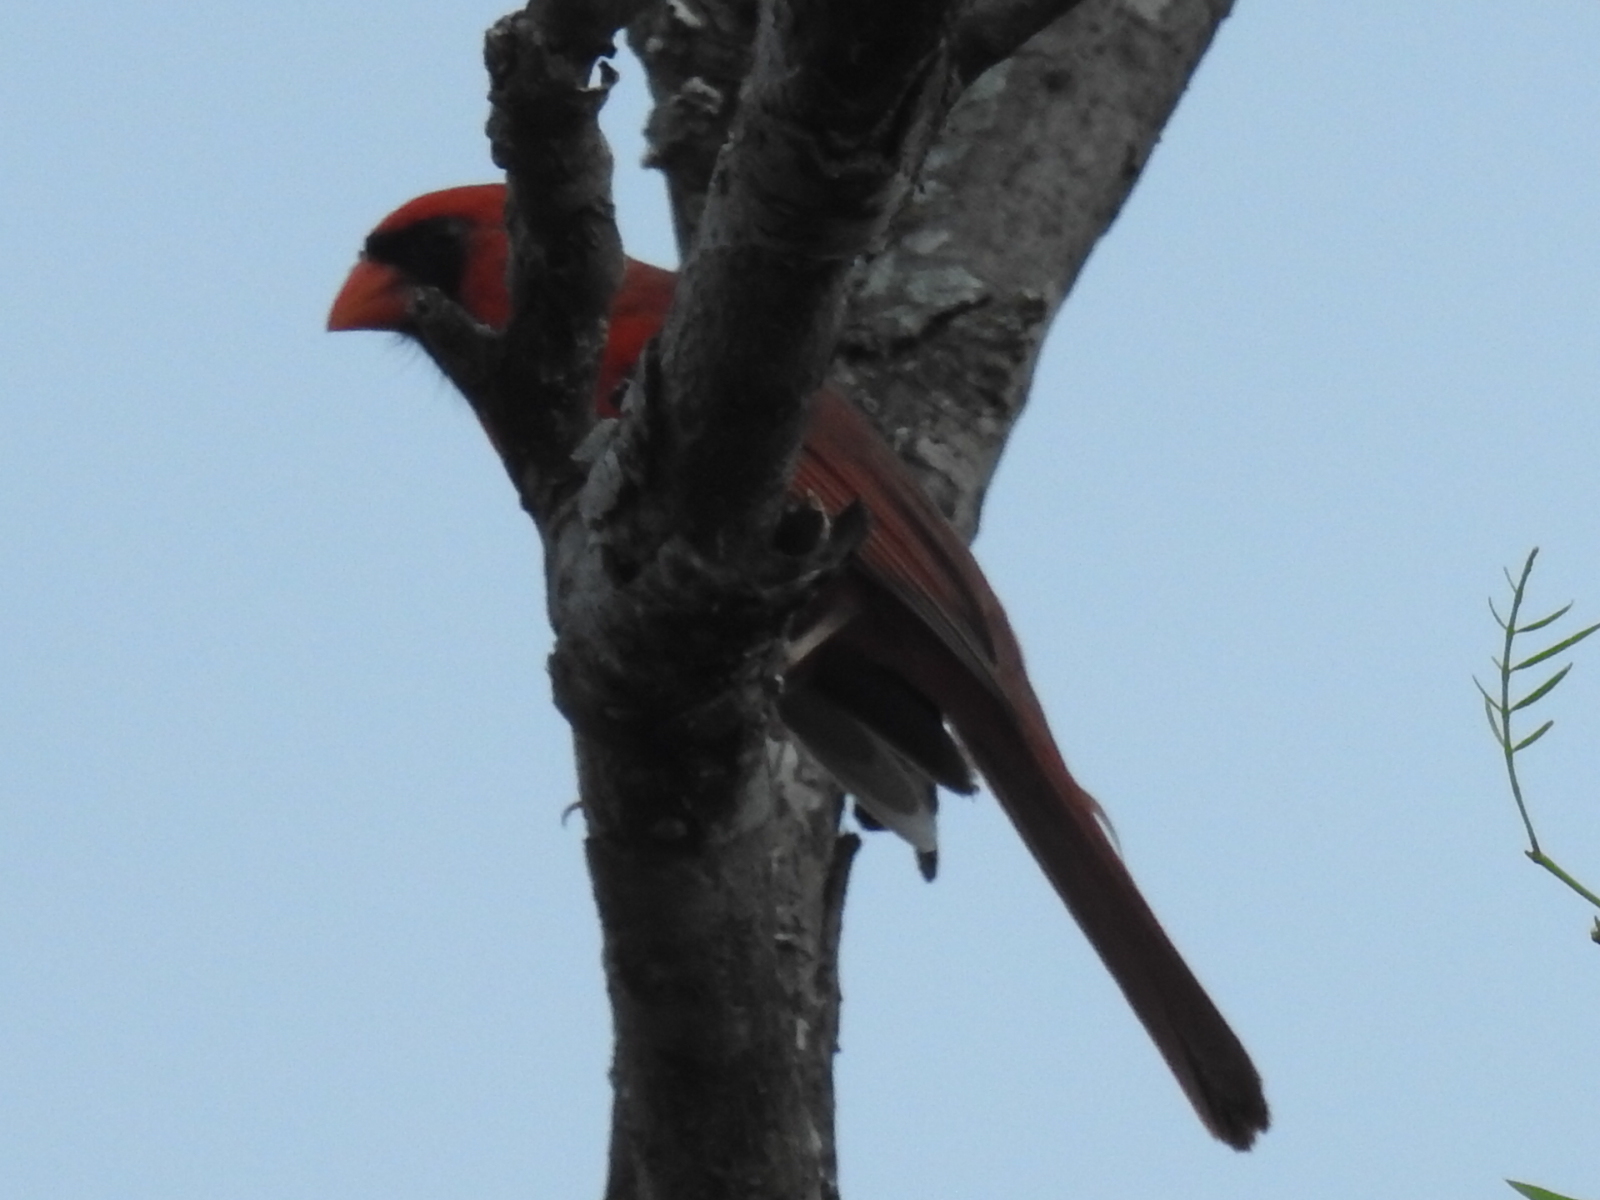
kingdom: Animalia
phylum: Chordata
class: Aves
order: Passeriformes
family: Cardinalidae
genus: Cardinalis
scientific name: Cardinalis cardinalis
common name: Northern cardinal
